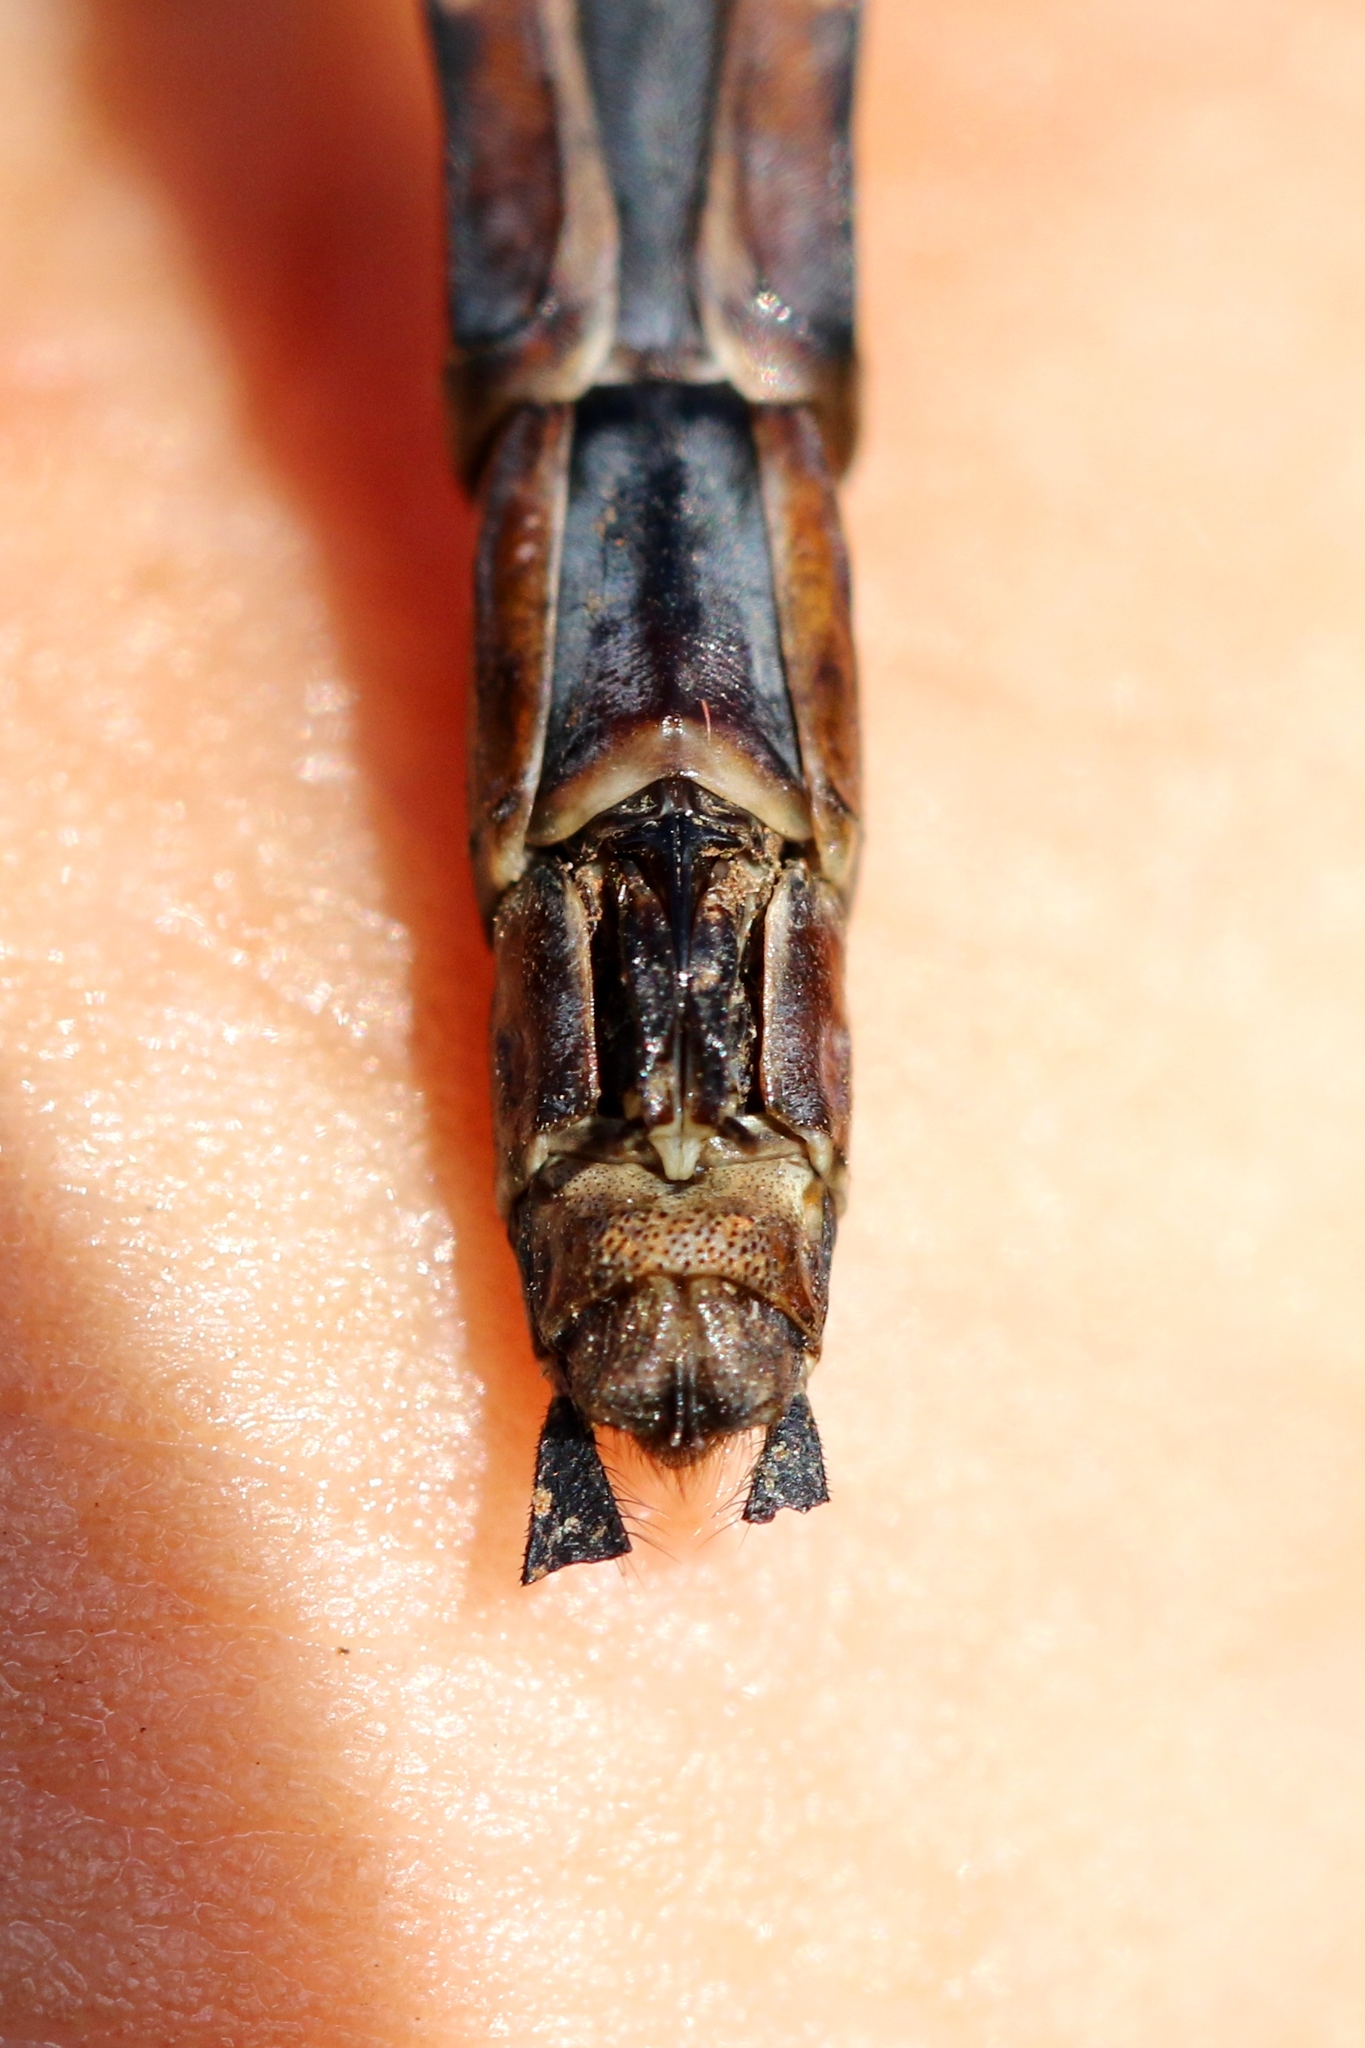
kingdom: Animalia
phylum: Arthropoda
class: Insecta
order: Odonata
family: Aeshnidae
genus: Aeshna
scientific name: Aeshna verticalis
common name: Green-striped darner
